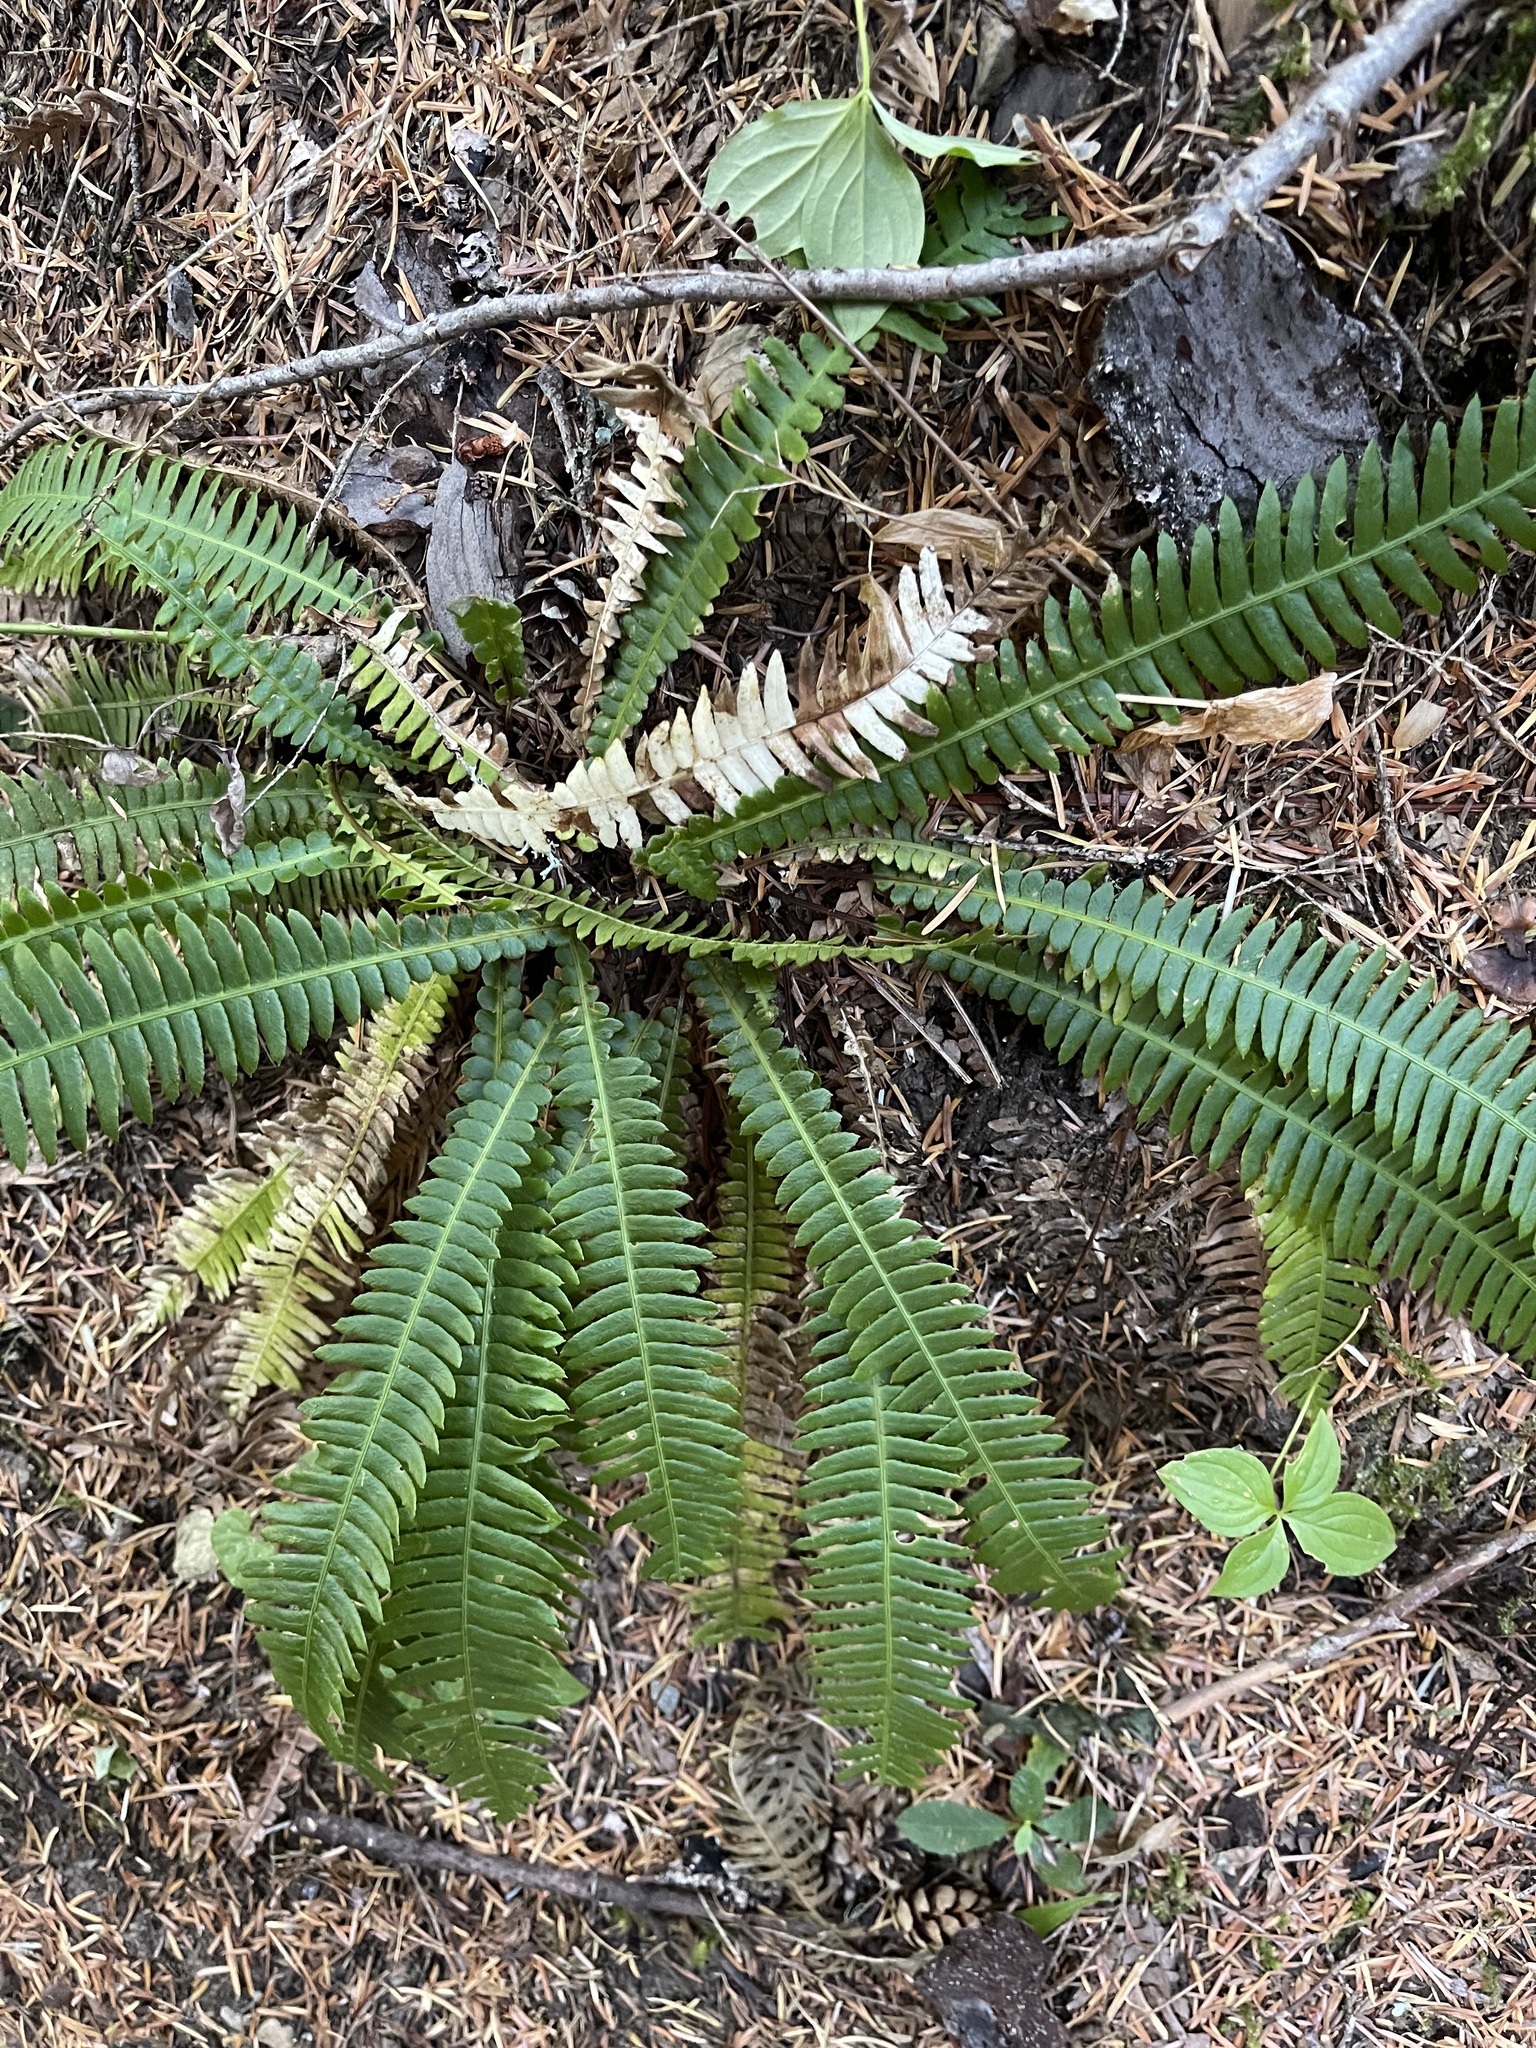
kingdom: Plantae
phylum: Tracheophyta
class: Polypodiopsida
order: Polypodiales
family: Blechnaceae
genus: Struthiopteris
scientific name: Struthiopteris spicant
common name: Deer fern
